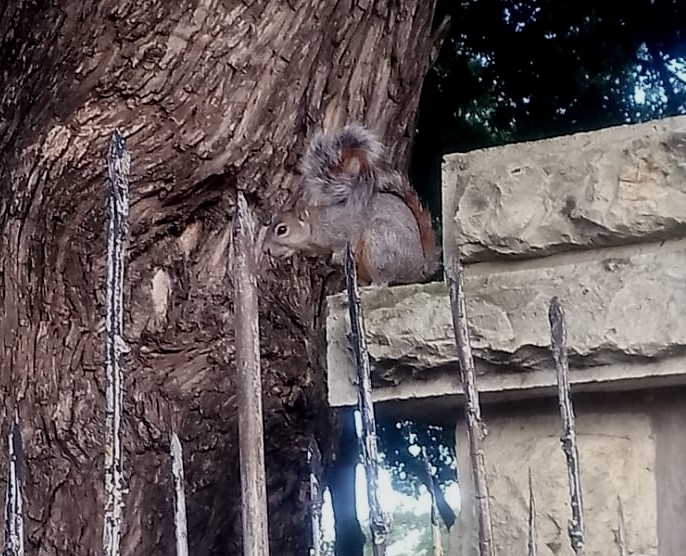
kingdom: Animalia
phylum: Chordata
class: Mammalia
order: Rodentia
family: Sciuridae
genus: Sciurus
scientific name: Sciurus aureogaster
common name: Red-bellied squirrel
